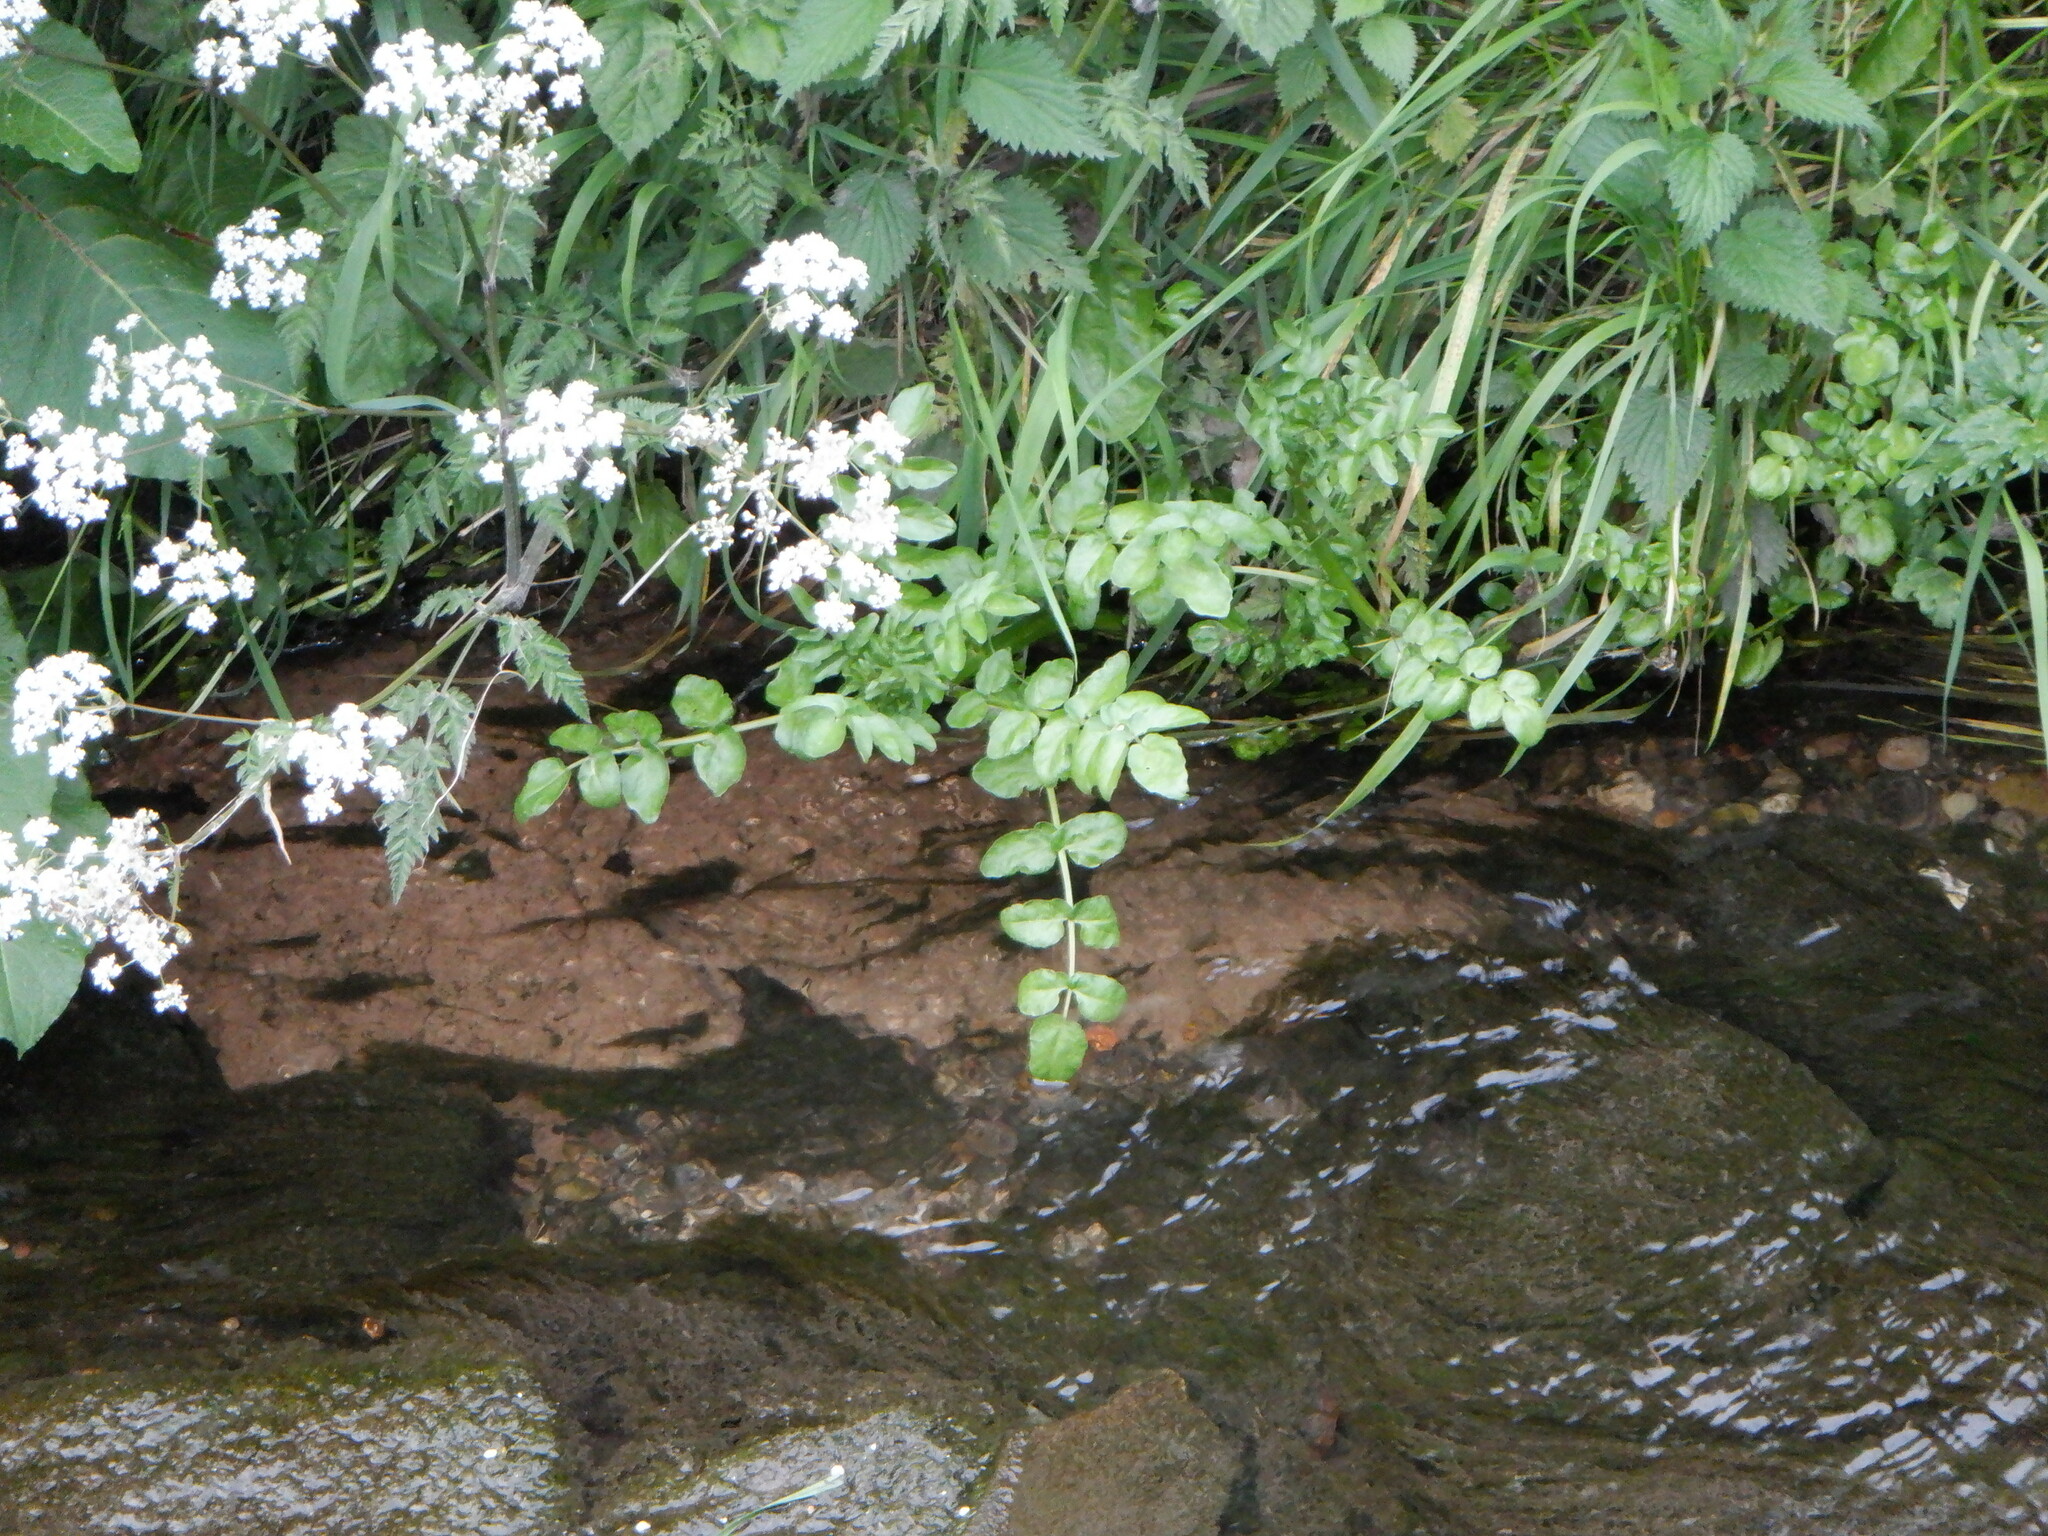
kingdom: Plantae
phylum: Tracheophyta
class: Magnoliopsida
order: Apiales
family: Apiaceae
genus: Helosciadium
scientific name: Helosciadium nodiflorum
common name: Fool's-watercress
